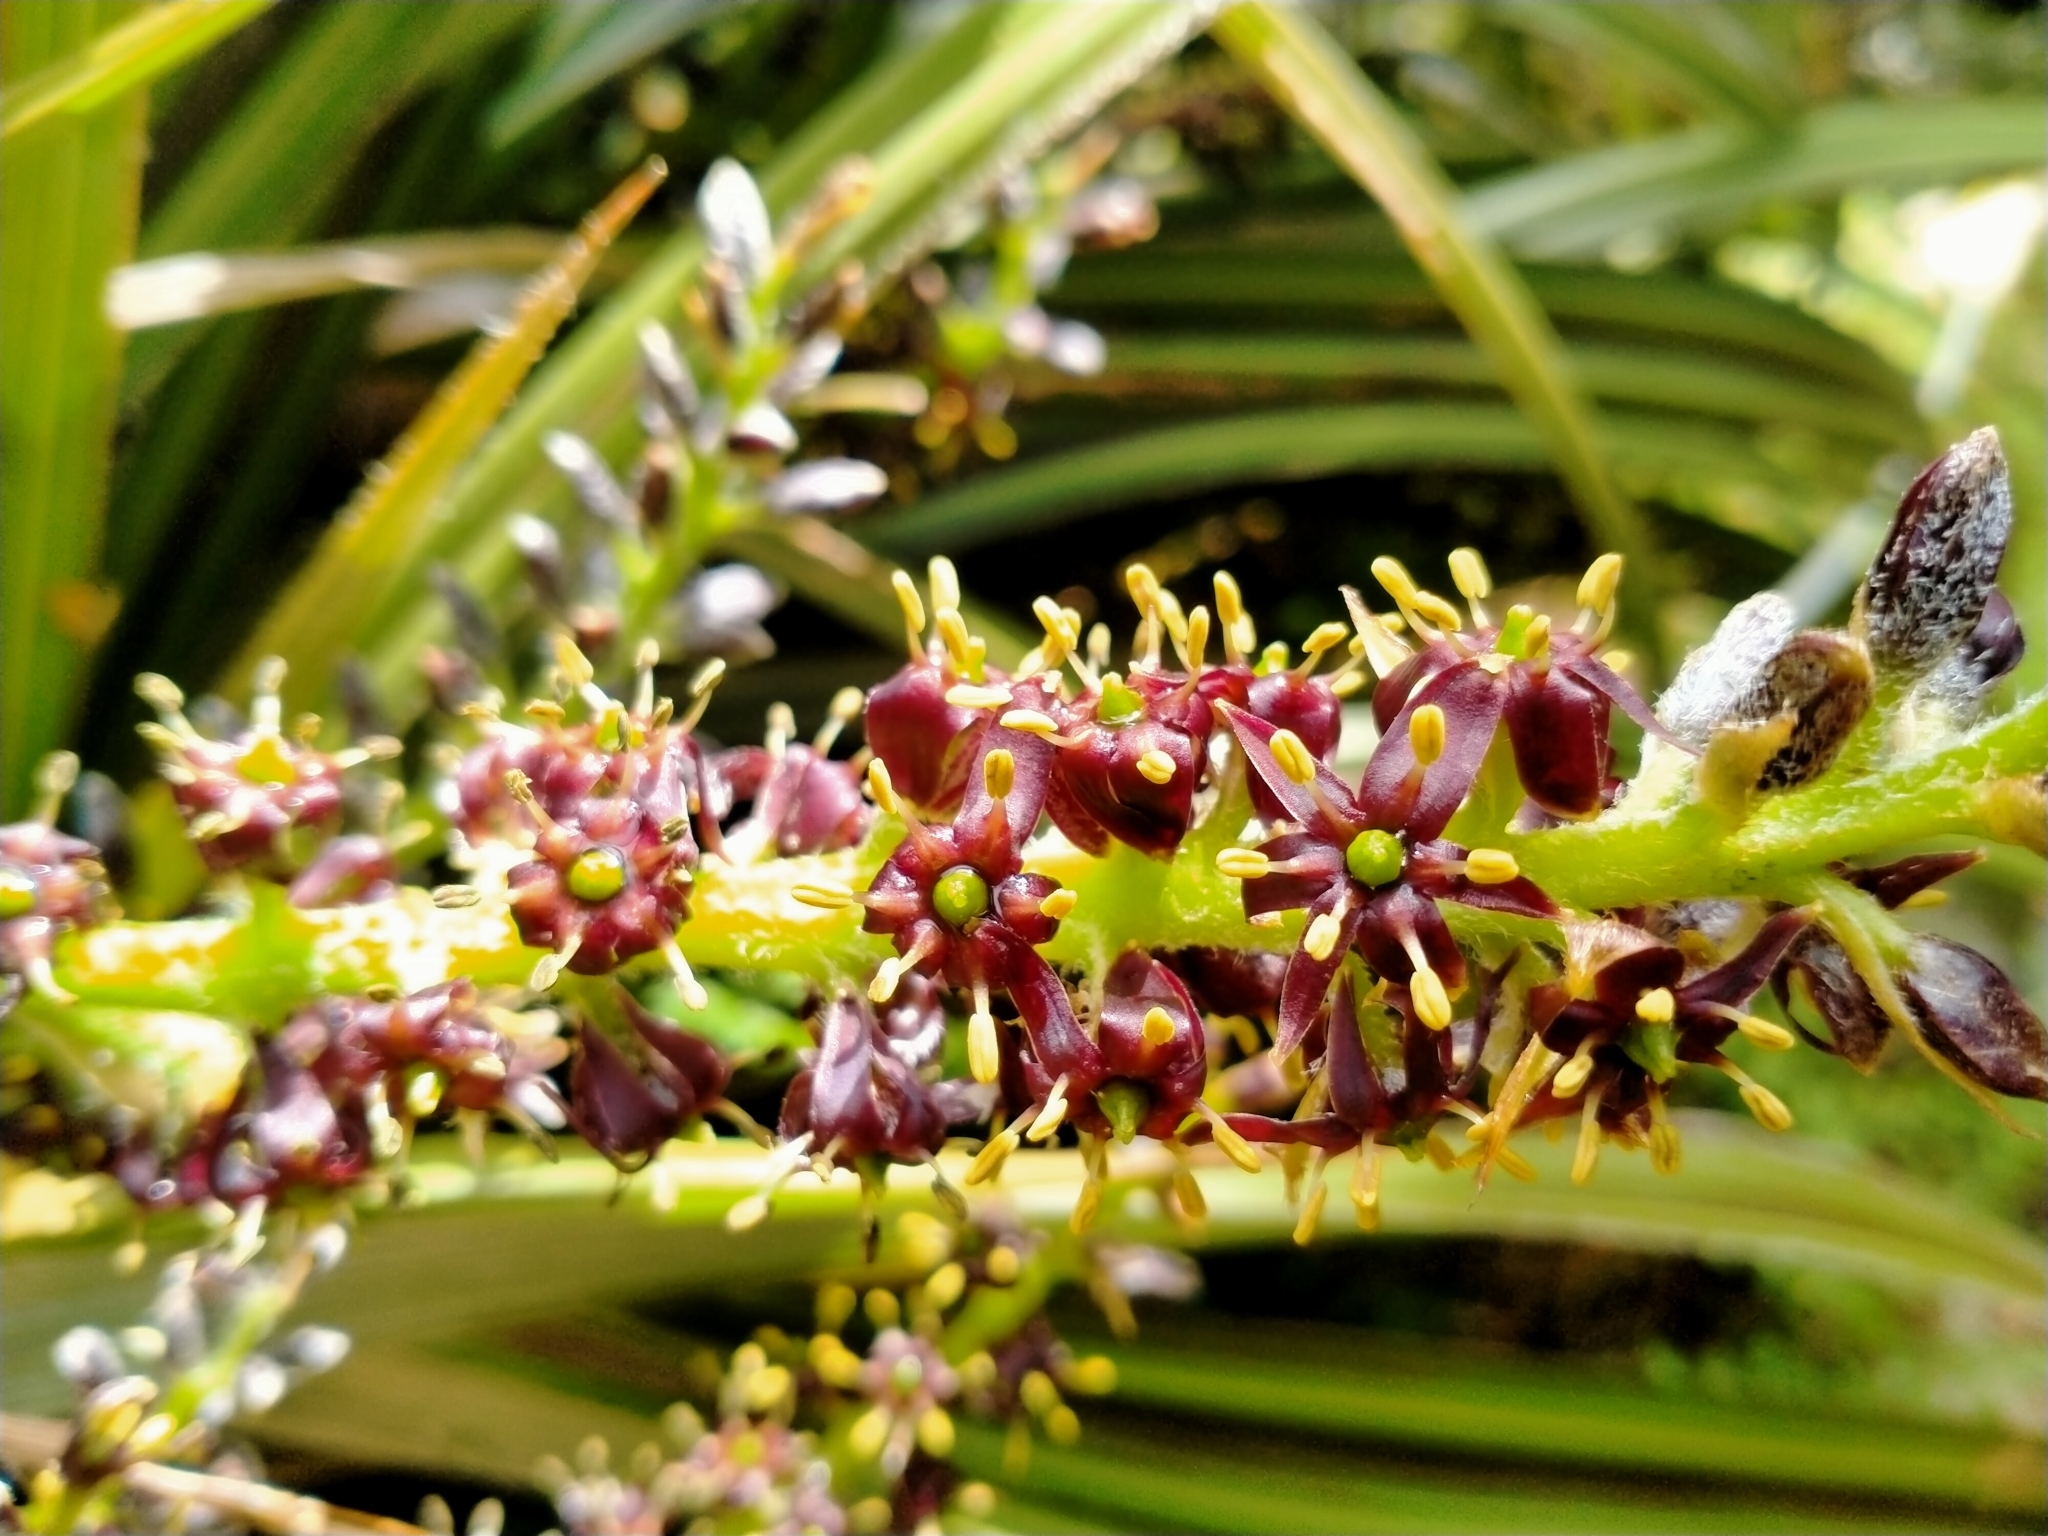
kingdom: Plantae
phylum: Tracheophyta
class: Liliopsida
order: Asparagales
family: Asteliaceae
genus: Astelia
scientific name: Astelia nervosa
